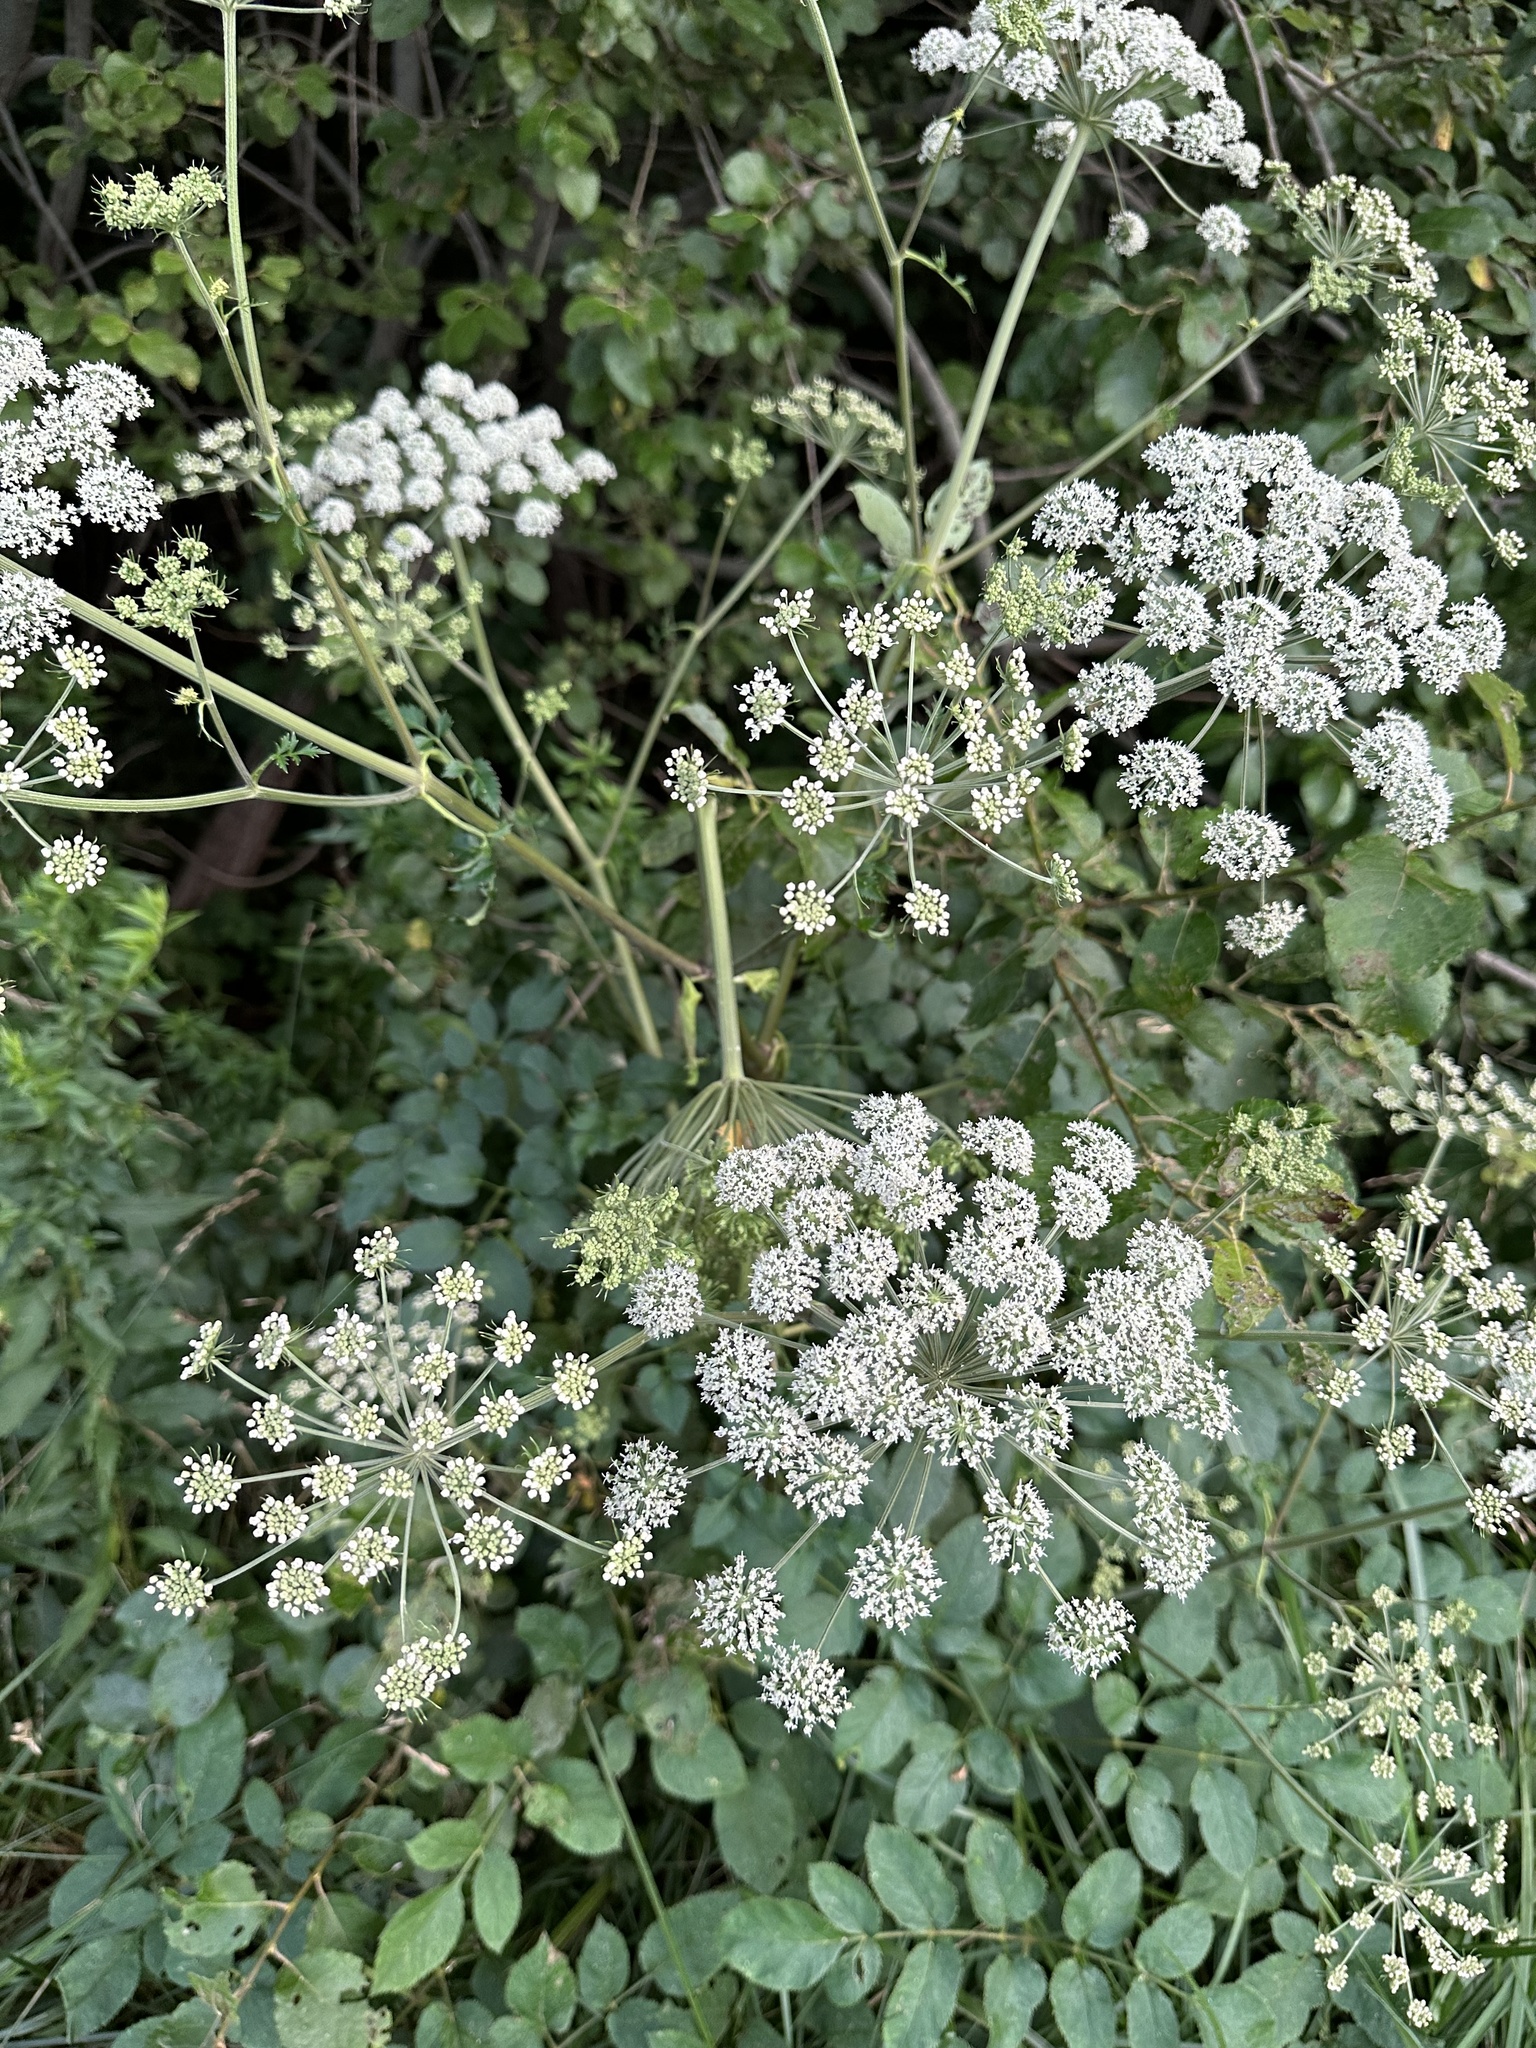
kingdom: Plantae
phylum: Tracheophyta
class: Magnoliopsida
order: Apiales
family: Apiaceae
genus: Angelica
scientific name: Angelica sylvestris
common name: Wild angelica
